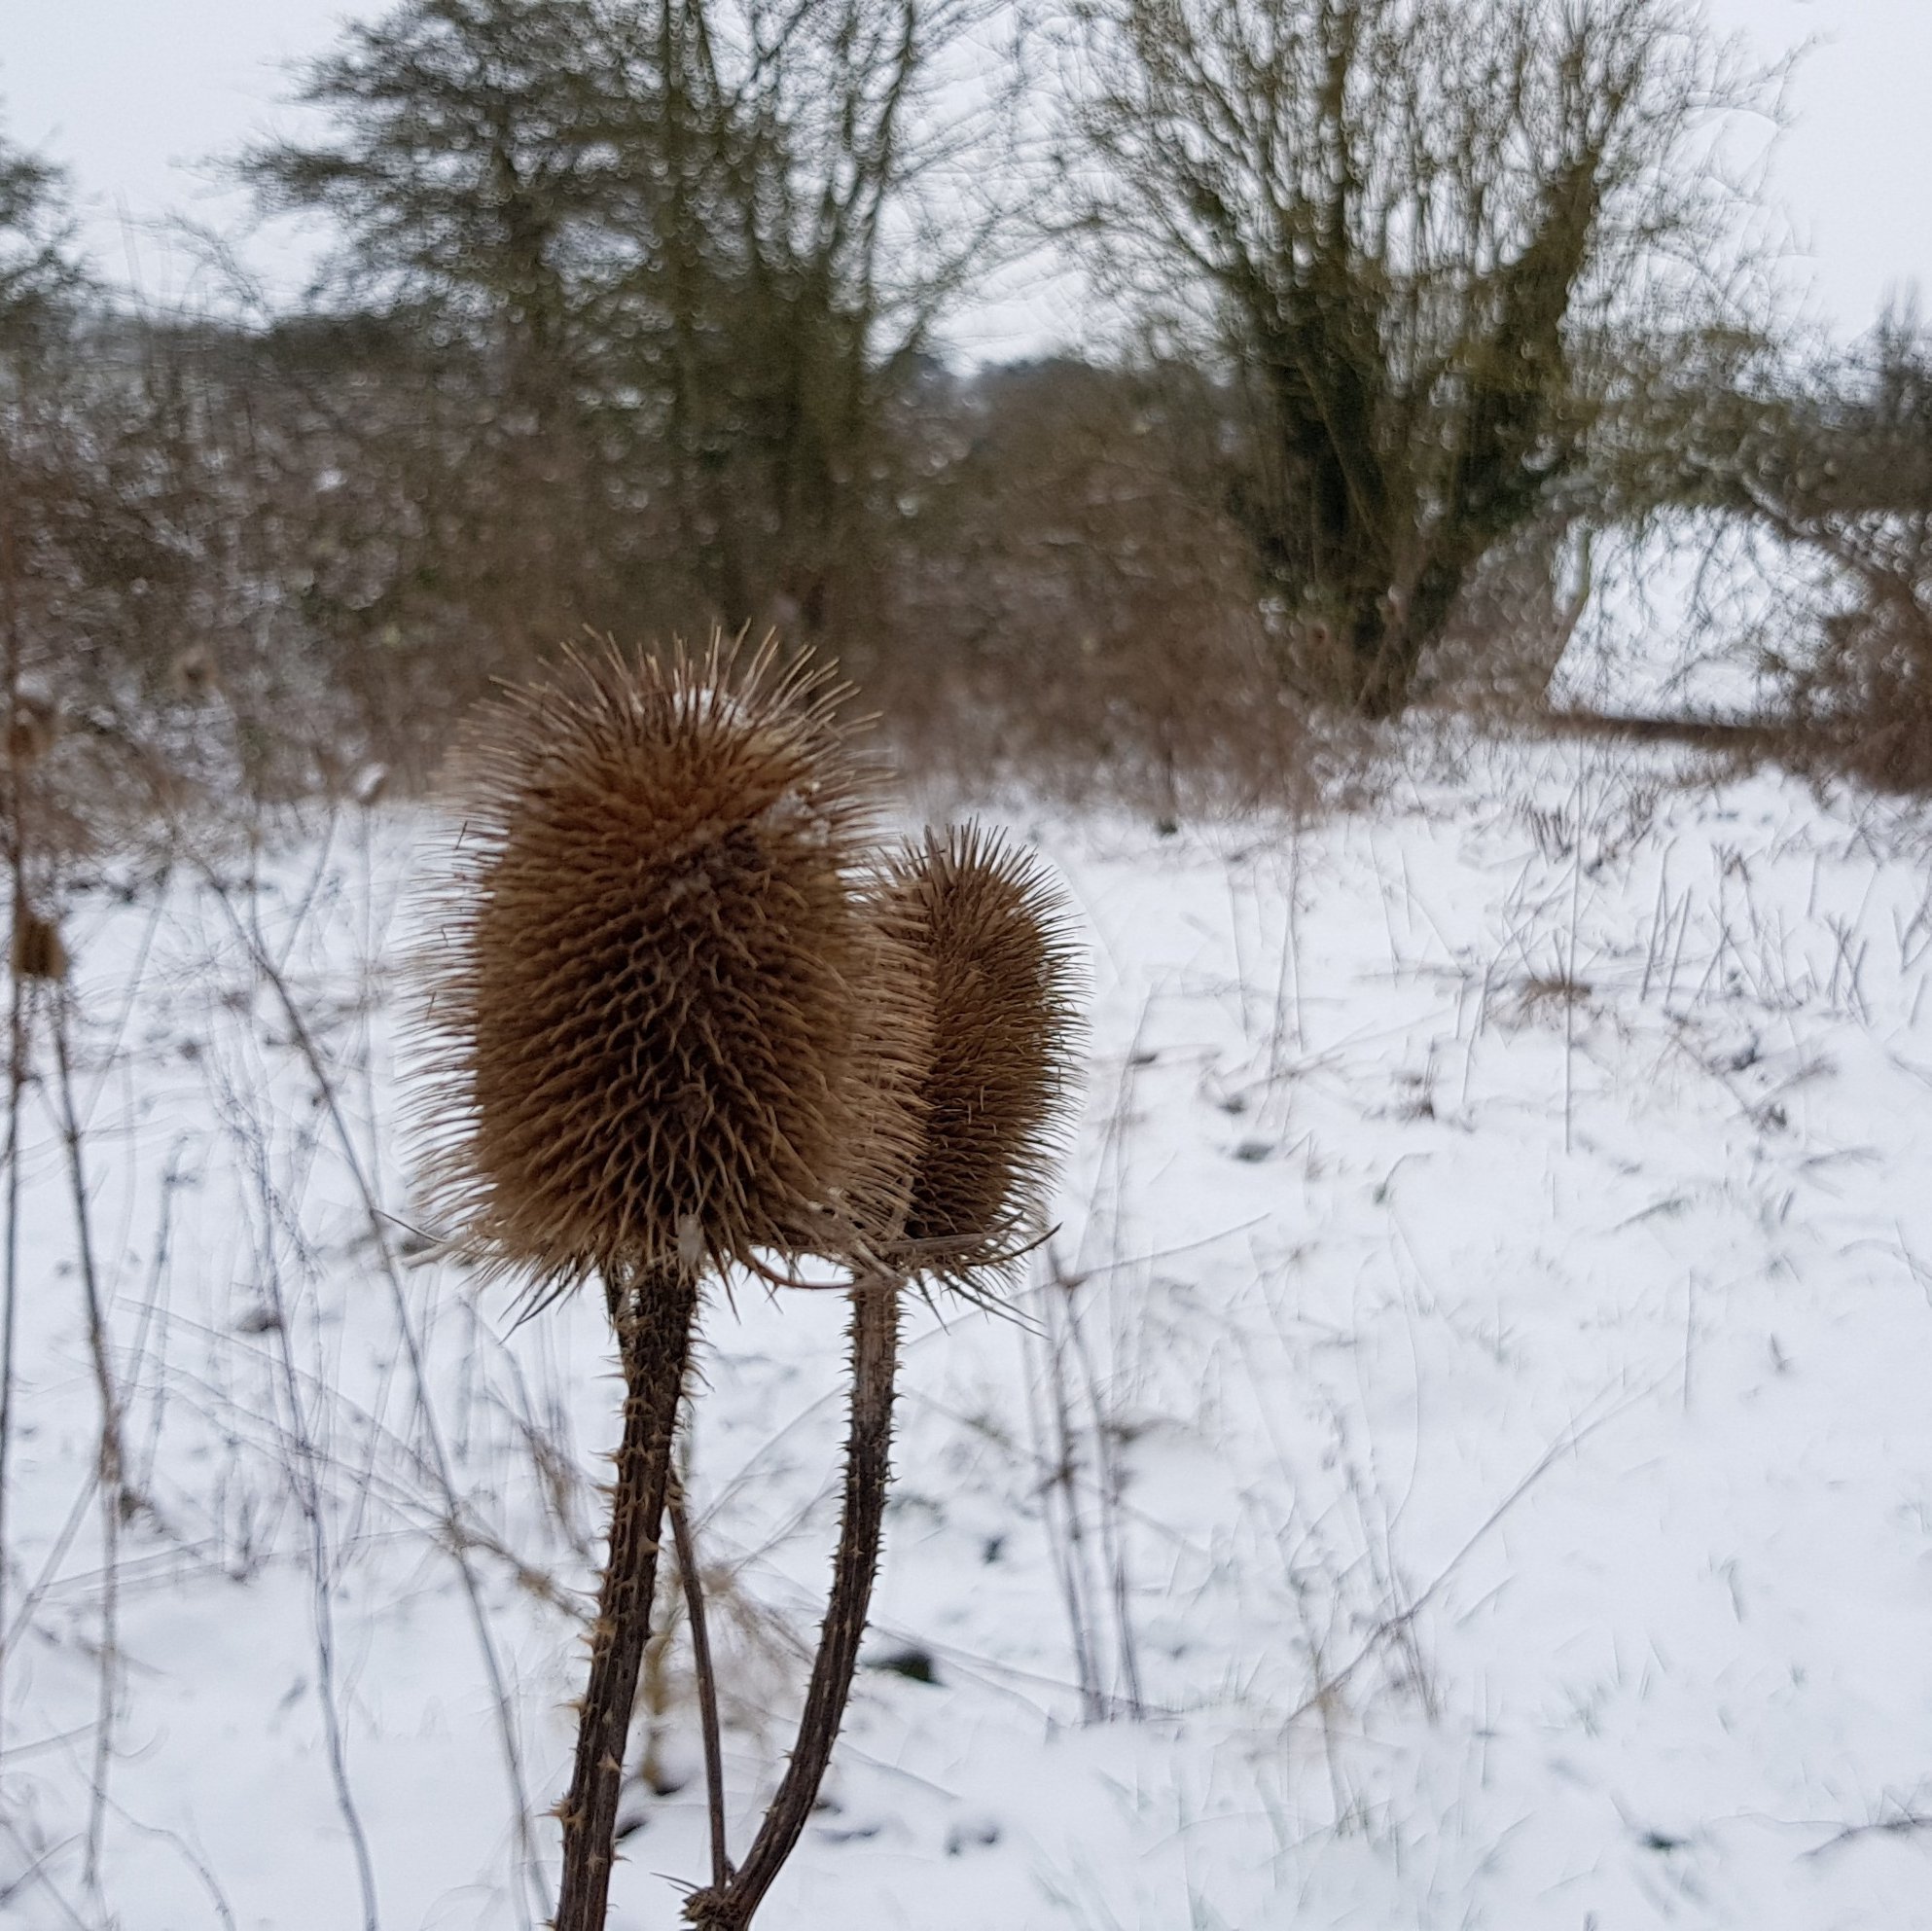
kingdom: Plantae
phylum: Tracheophyta
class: Magnoliopsida
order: Dipsacales
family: Caprifoliaceae
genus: Dipsacus
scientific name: Dipsacus fullonum
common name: Teasel
